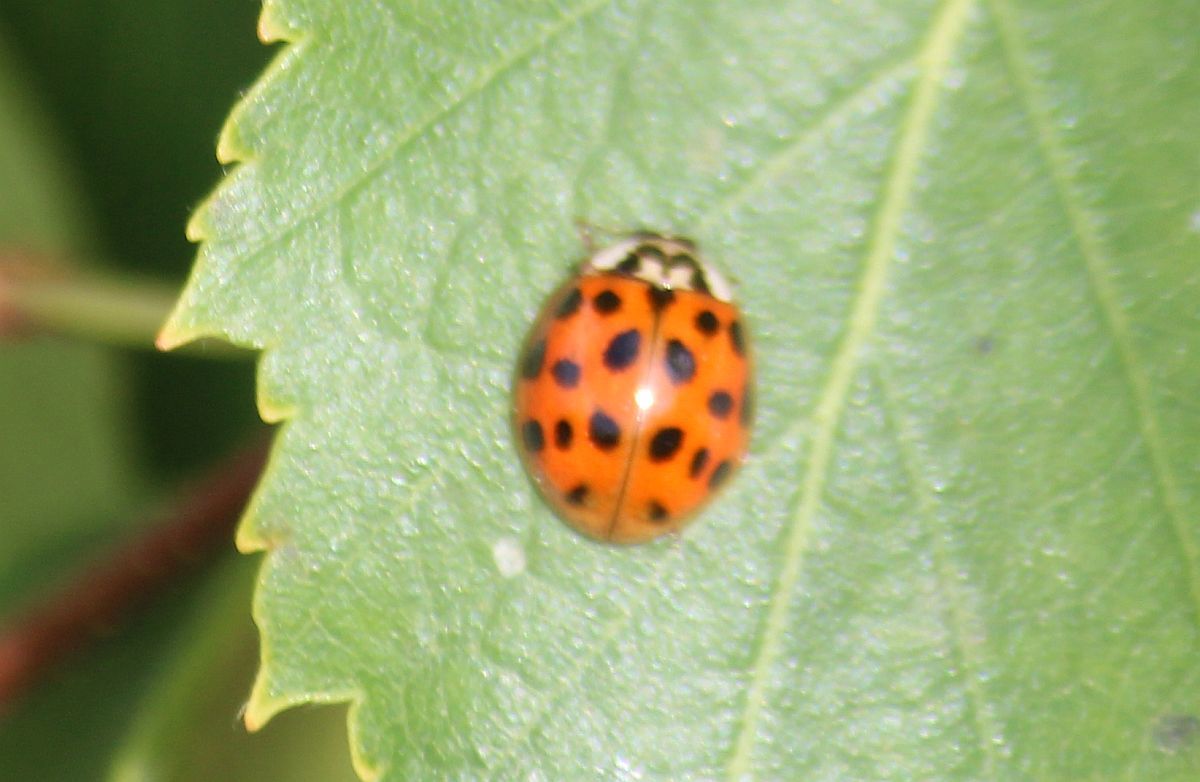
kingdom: Animalia
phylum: Arthropoda
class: Insecta
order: Coleoptera
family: Coccinellidae
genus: Harmonia
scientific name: Harmonia axyridis
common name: Harlequin ladybird
